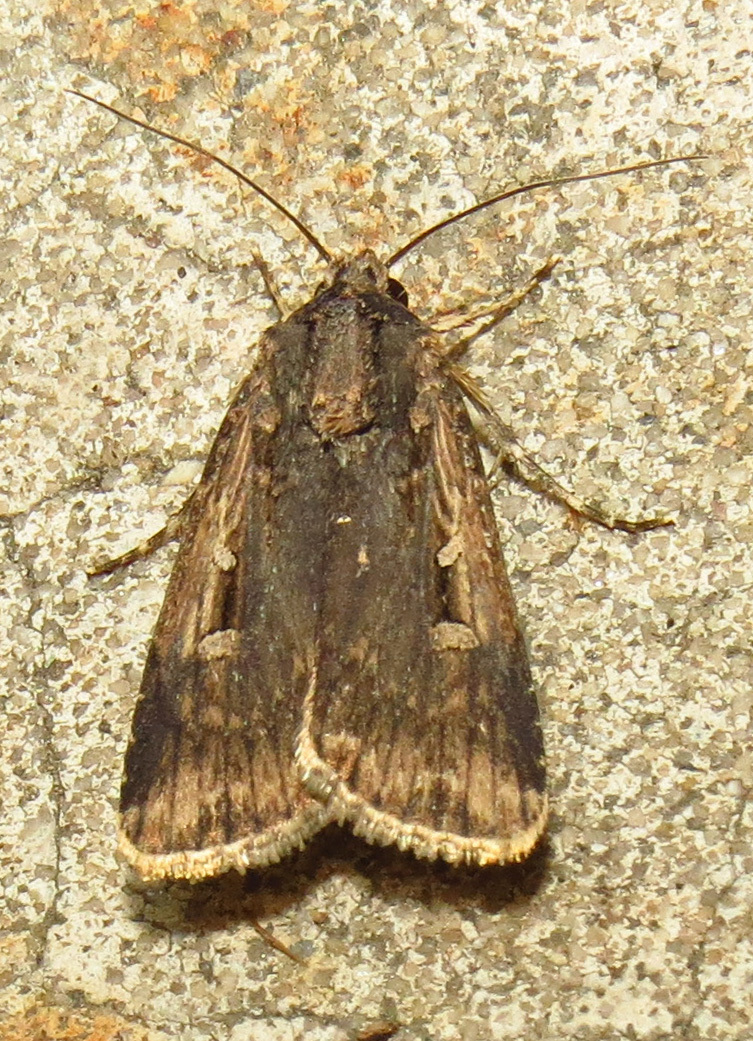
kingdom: Animalia
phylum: Arthropoda
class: Insecta
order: Lepidoptera
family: Noctuidae
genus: Feltia
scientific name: Feltia subterranea
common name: Granulate cutworm
